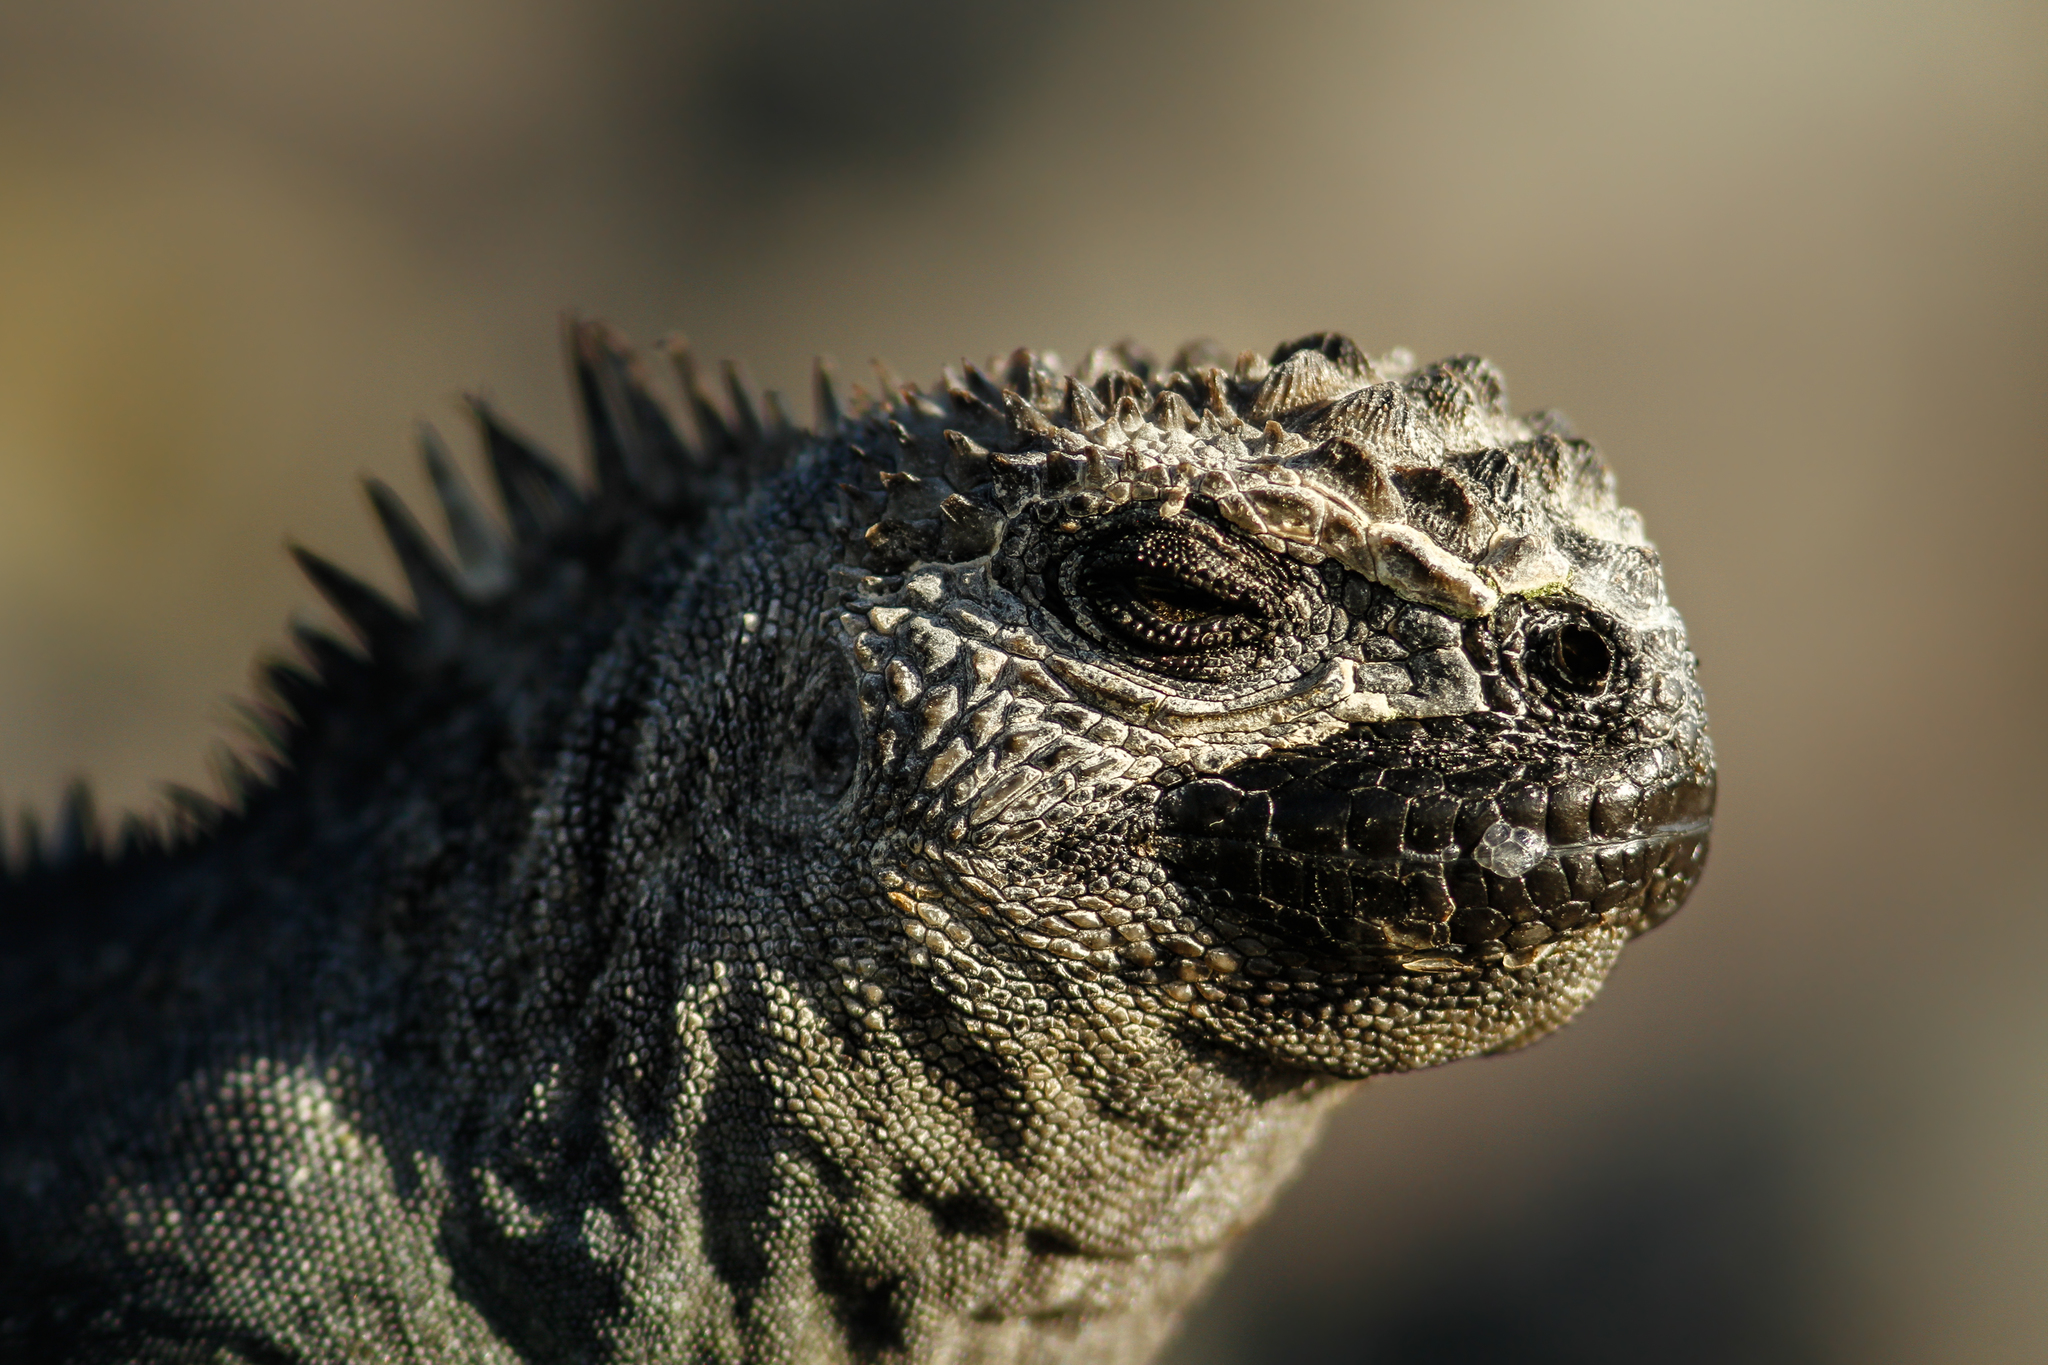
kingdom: Animalia
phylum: Chordata
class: Squamata
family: Iguanidae
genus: Amblyrhynchus
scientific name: Amblyrhynchus cristatus
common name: Marine iguana
